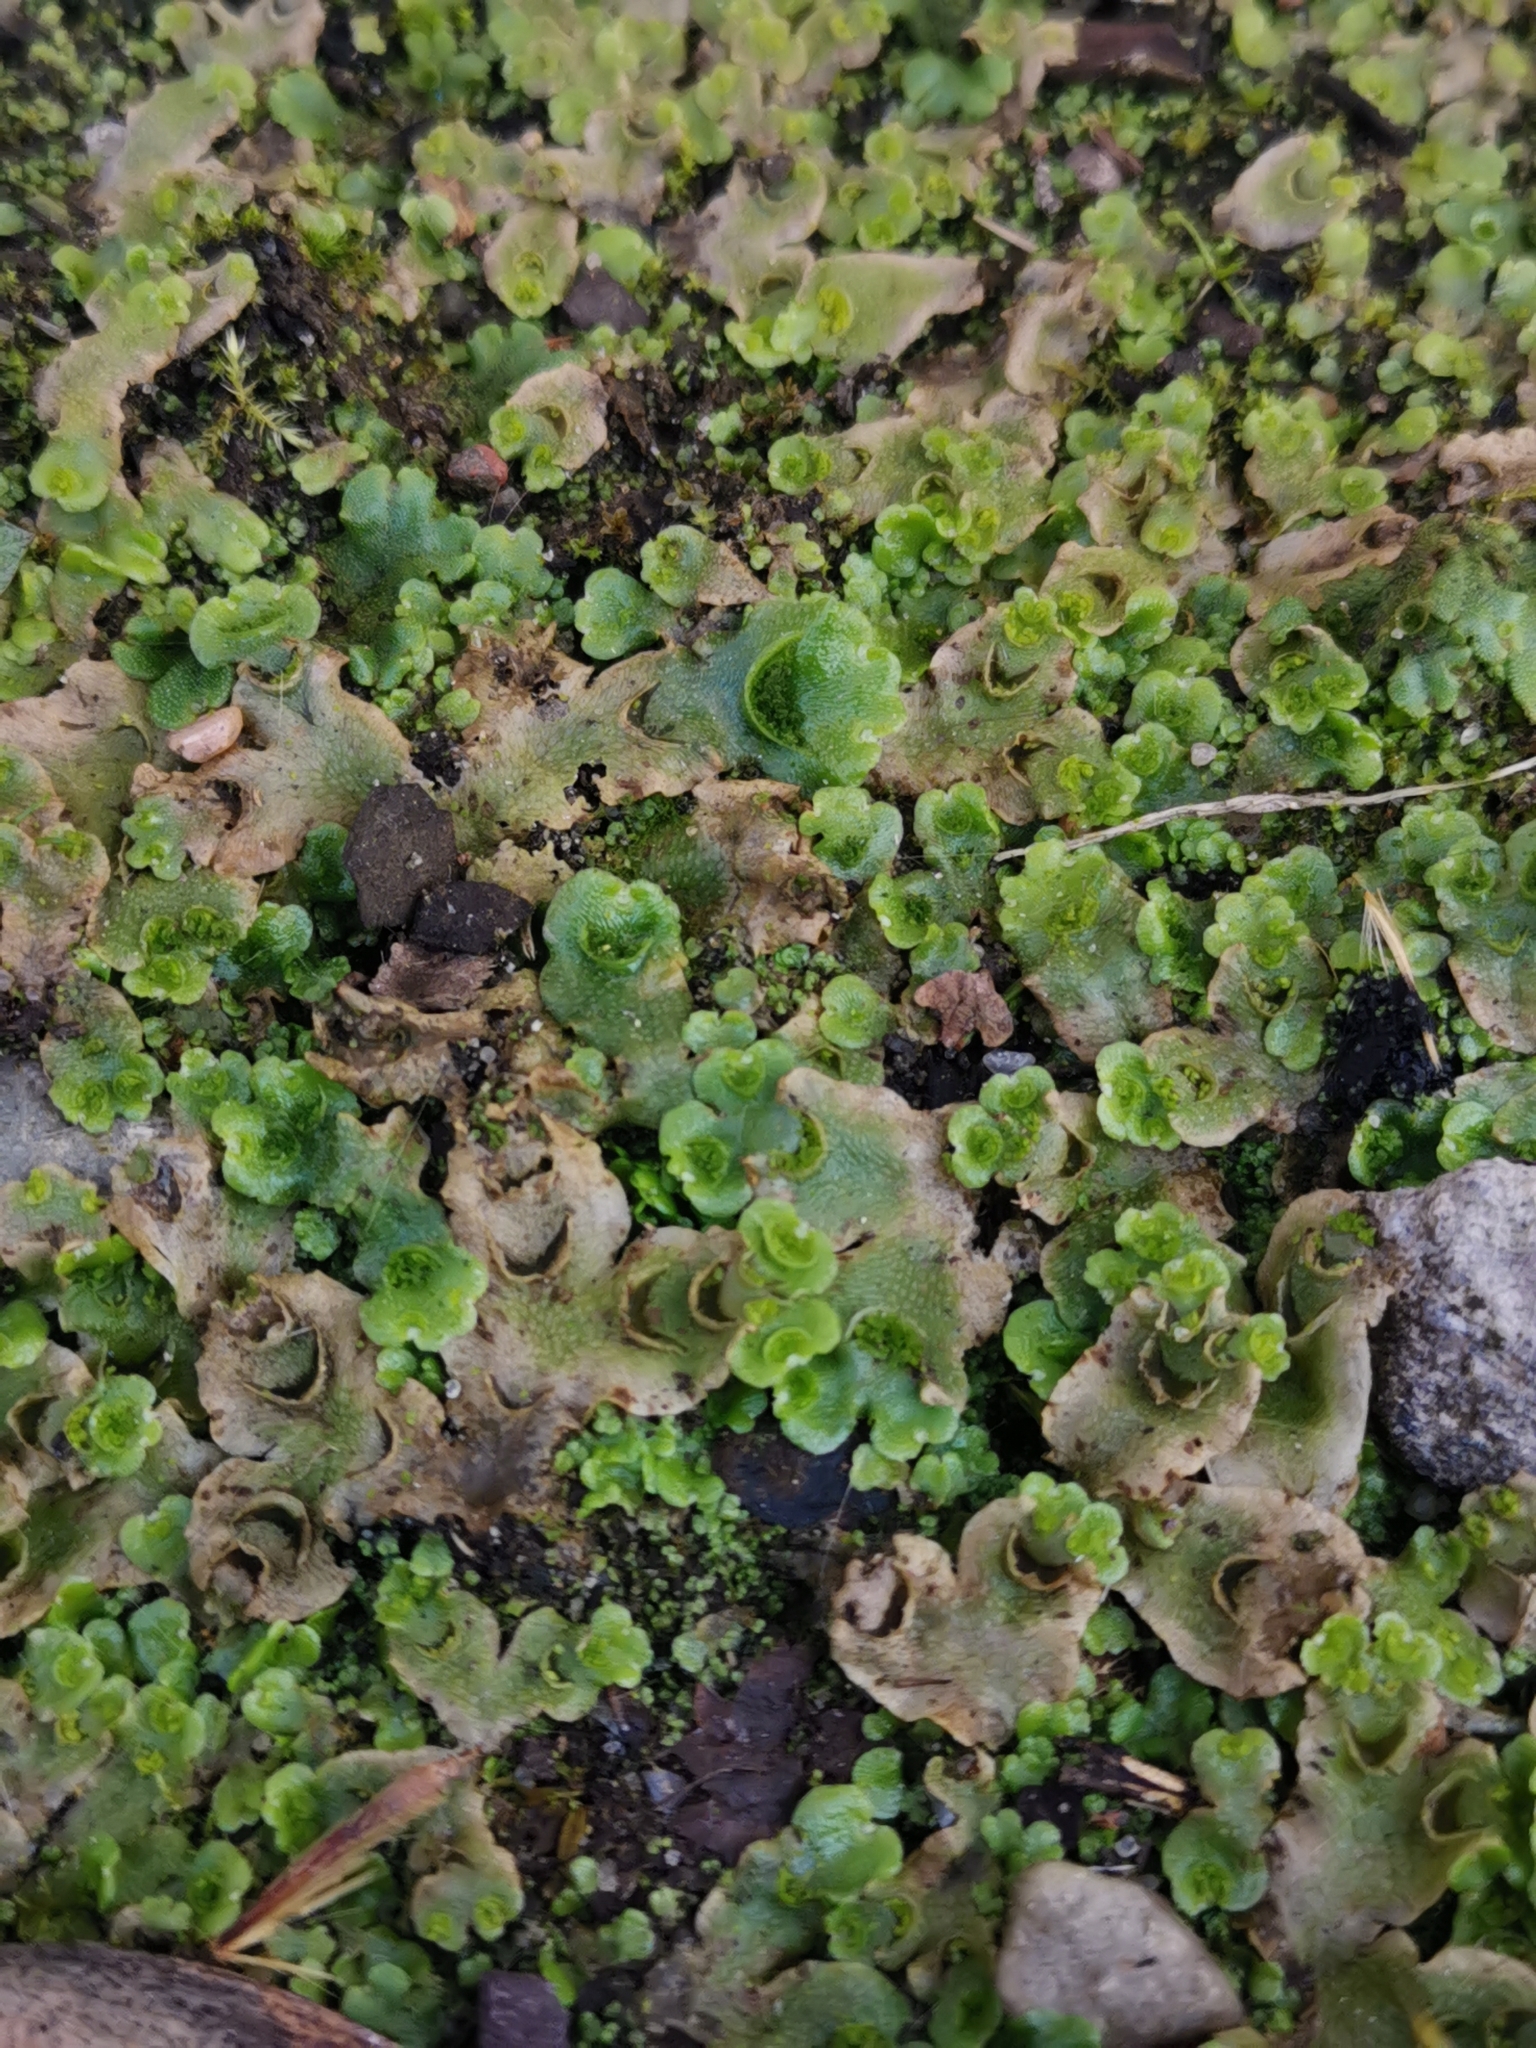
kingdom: Plantae
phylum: Marchantiophyta
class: Marchantiopsida
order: Lunulariales
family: Lunulariaceae
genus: Lunularia
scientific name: Lunularia cruciata
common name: Crescent-cup liverwort
